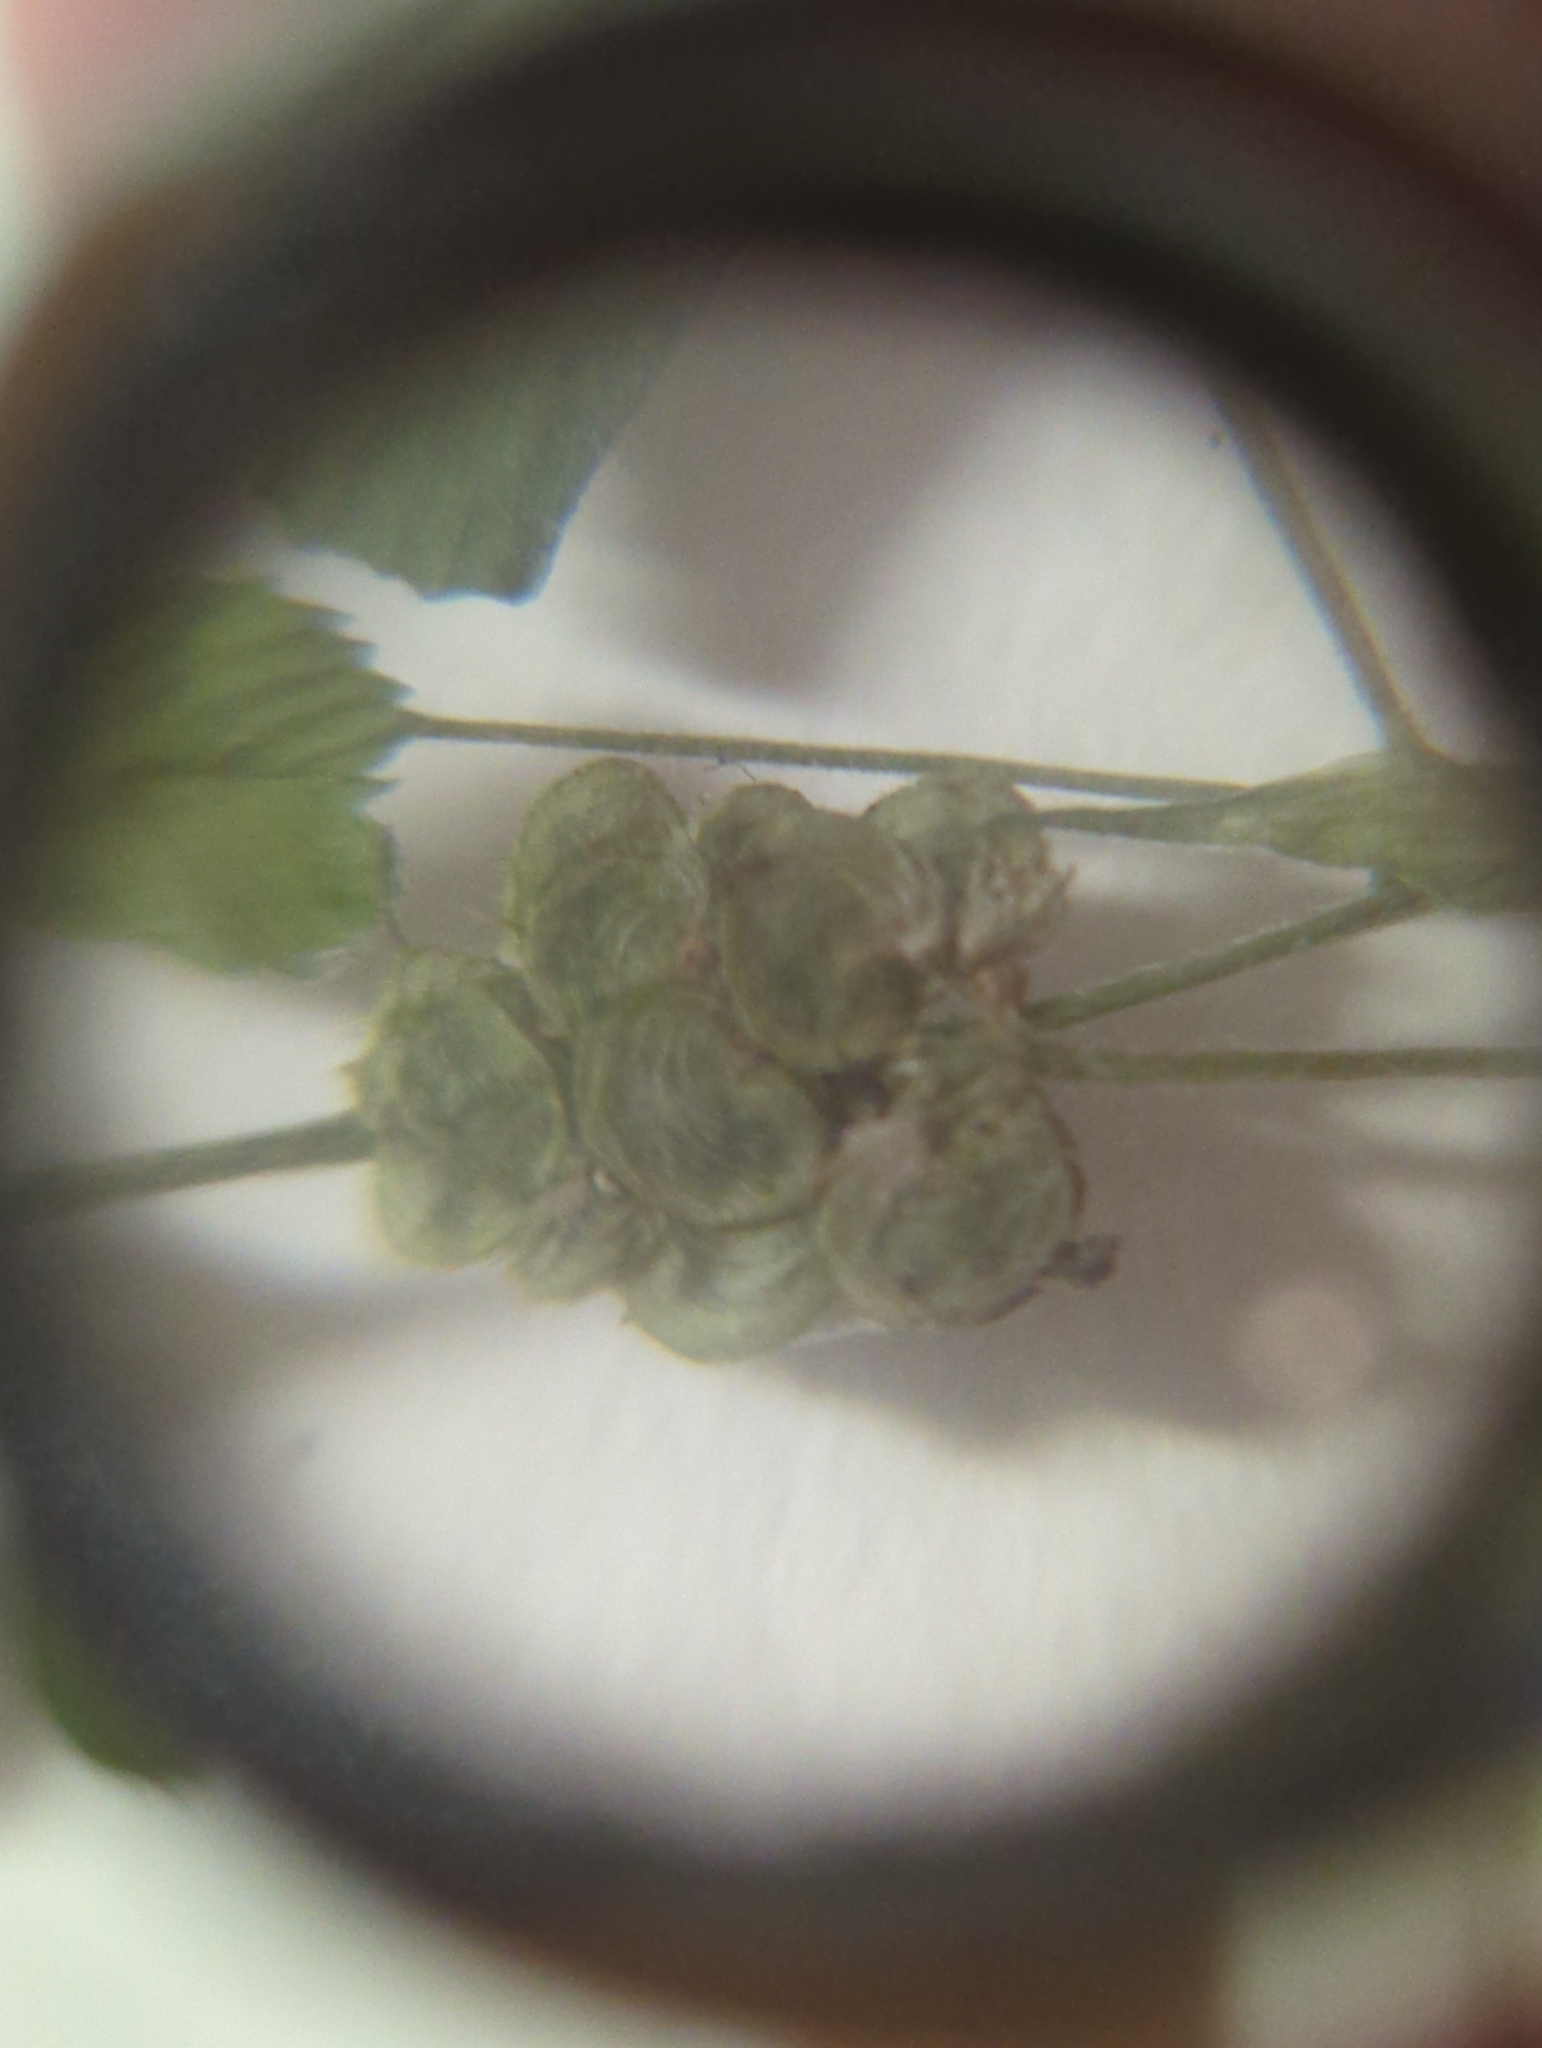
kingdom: Plantae
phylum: Tracheophyta
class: Magnoliopsida
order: Fabales
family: Fabaceae
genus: Medicago
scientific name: Medicago lupulina
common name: Black medick
